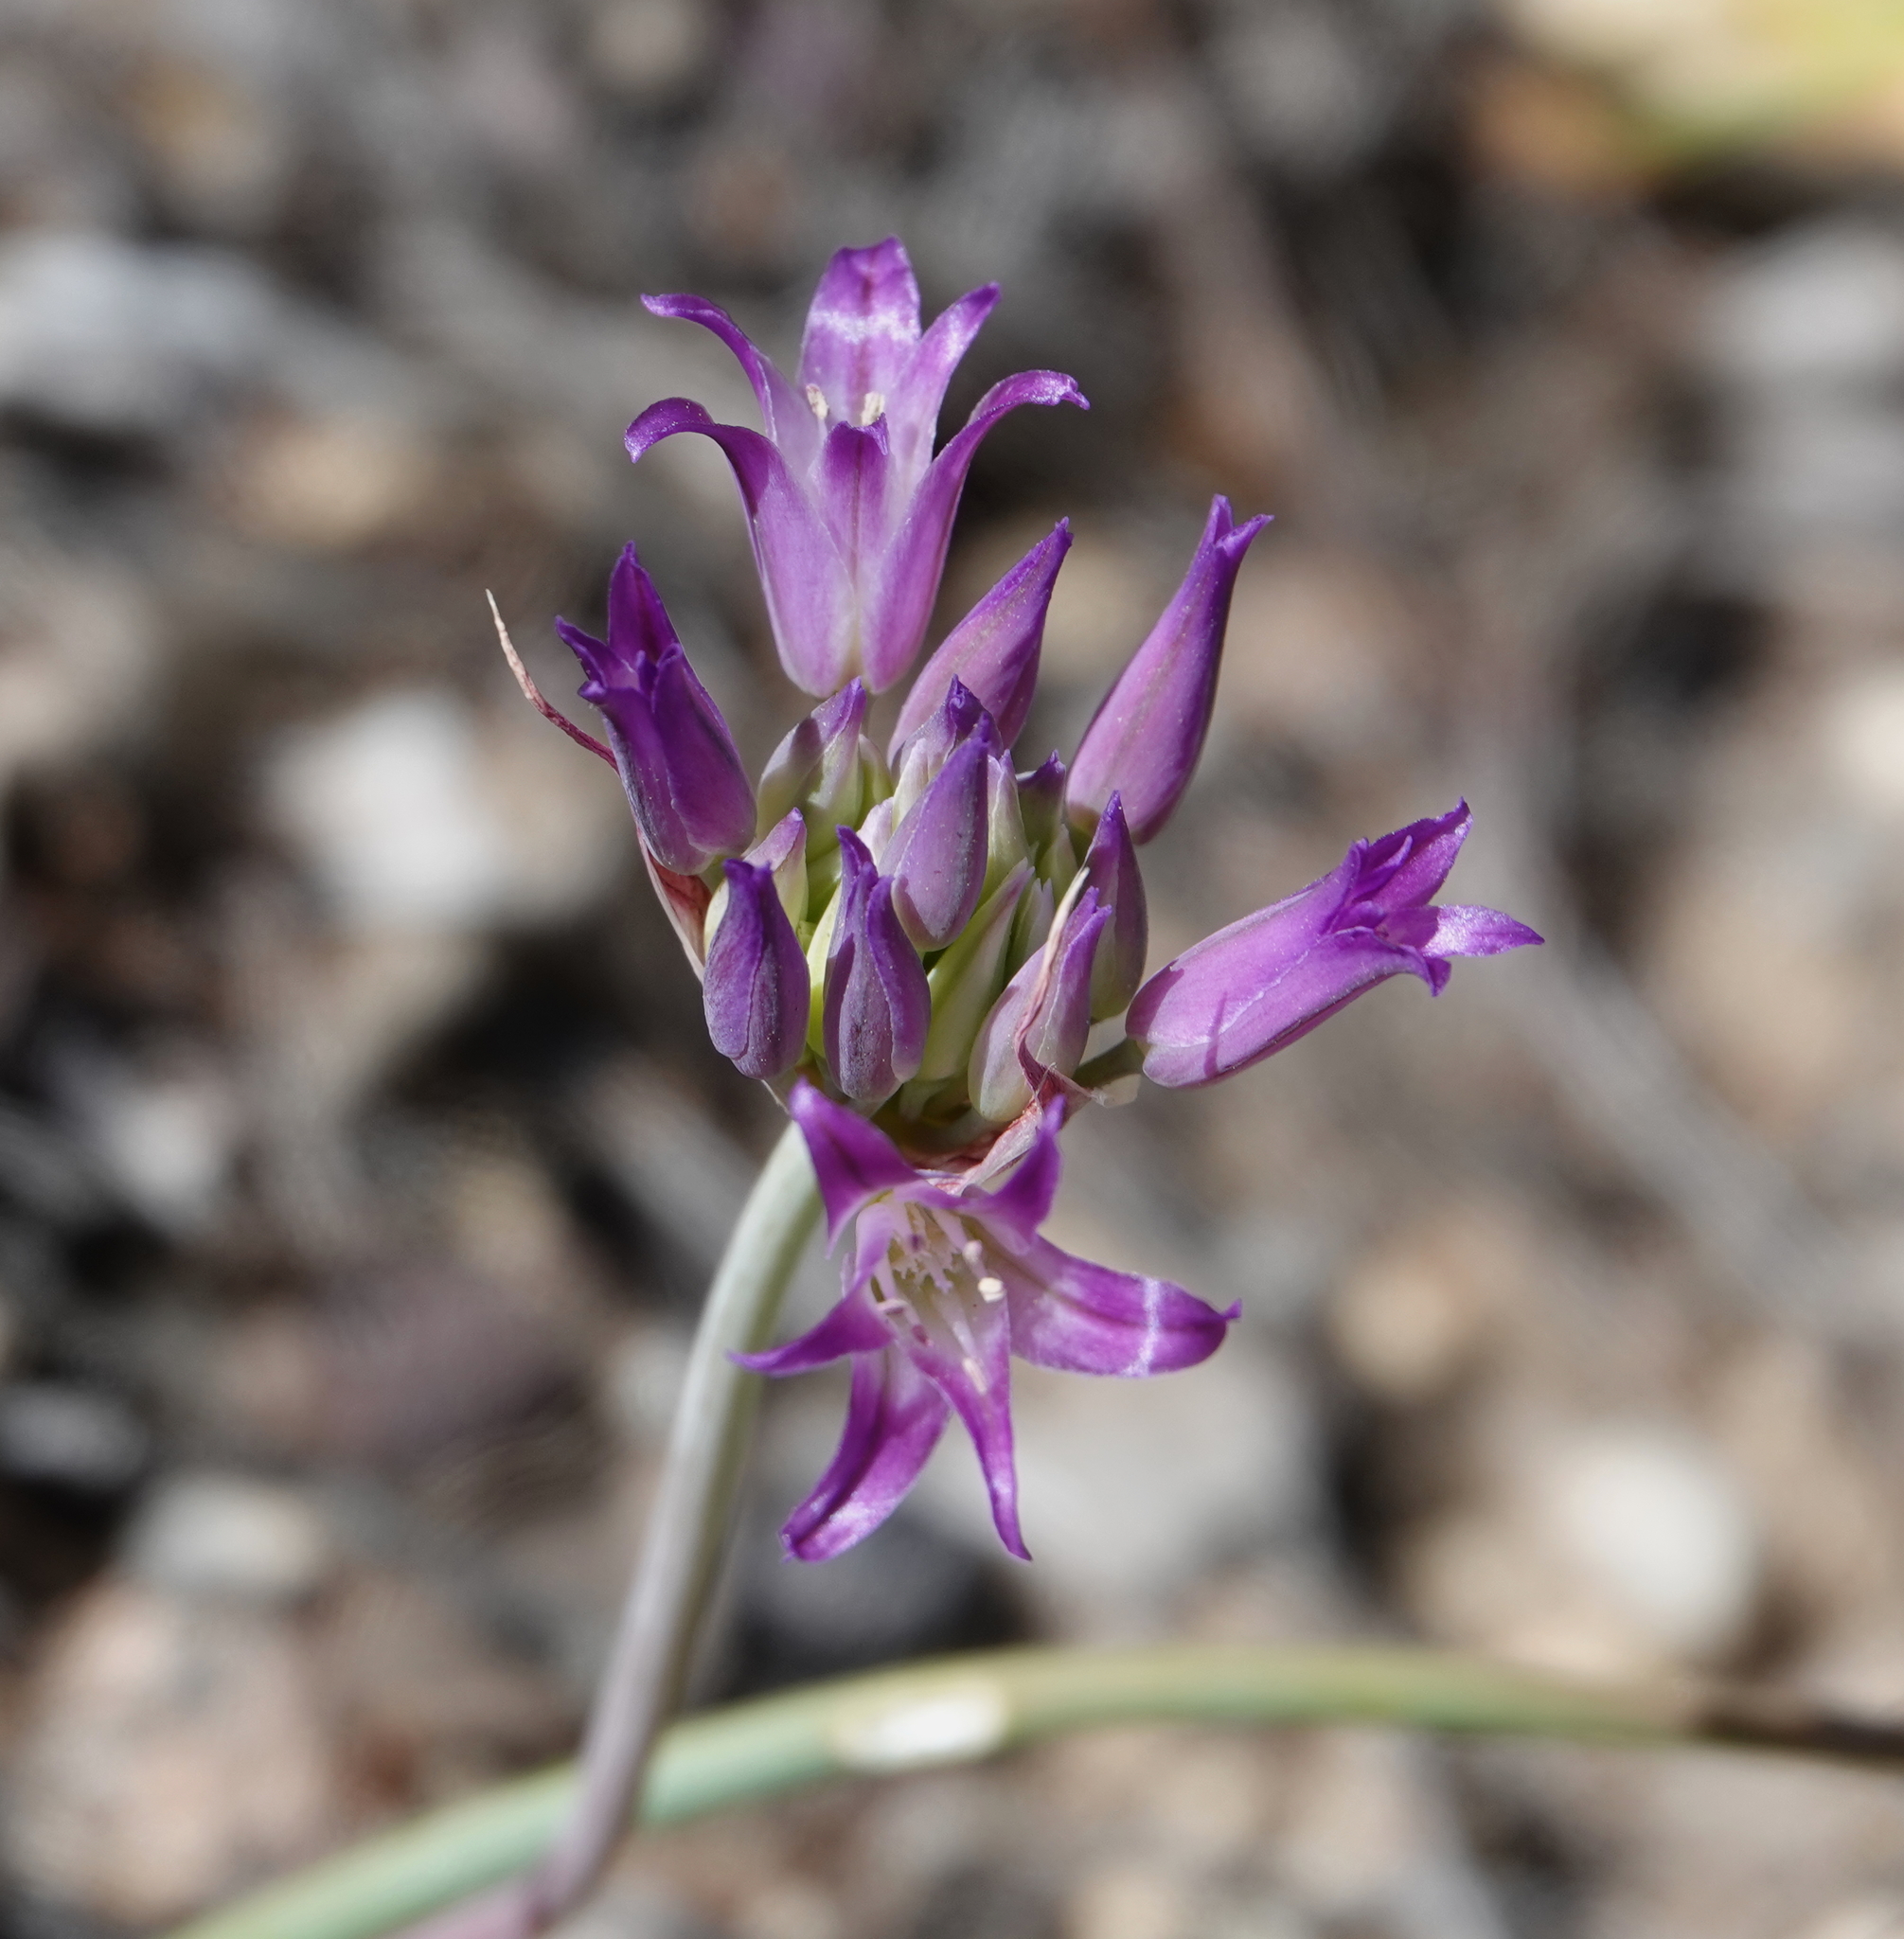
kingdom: Plantae
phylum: Tracheophyta
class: Liliopsida
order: Asparagales
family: Amaryllidaceae
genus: Allium
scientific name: Allium fimbriatum
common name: Fringed onion
